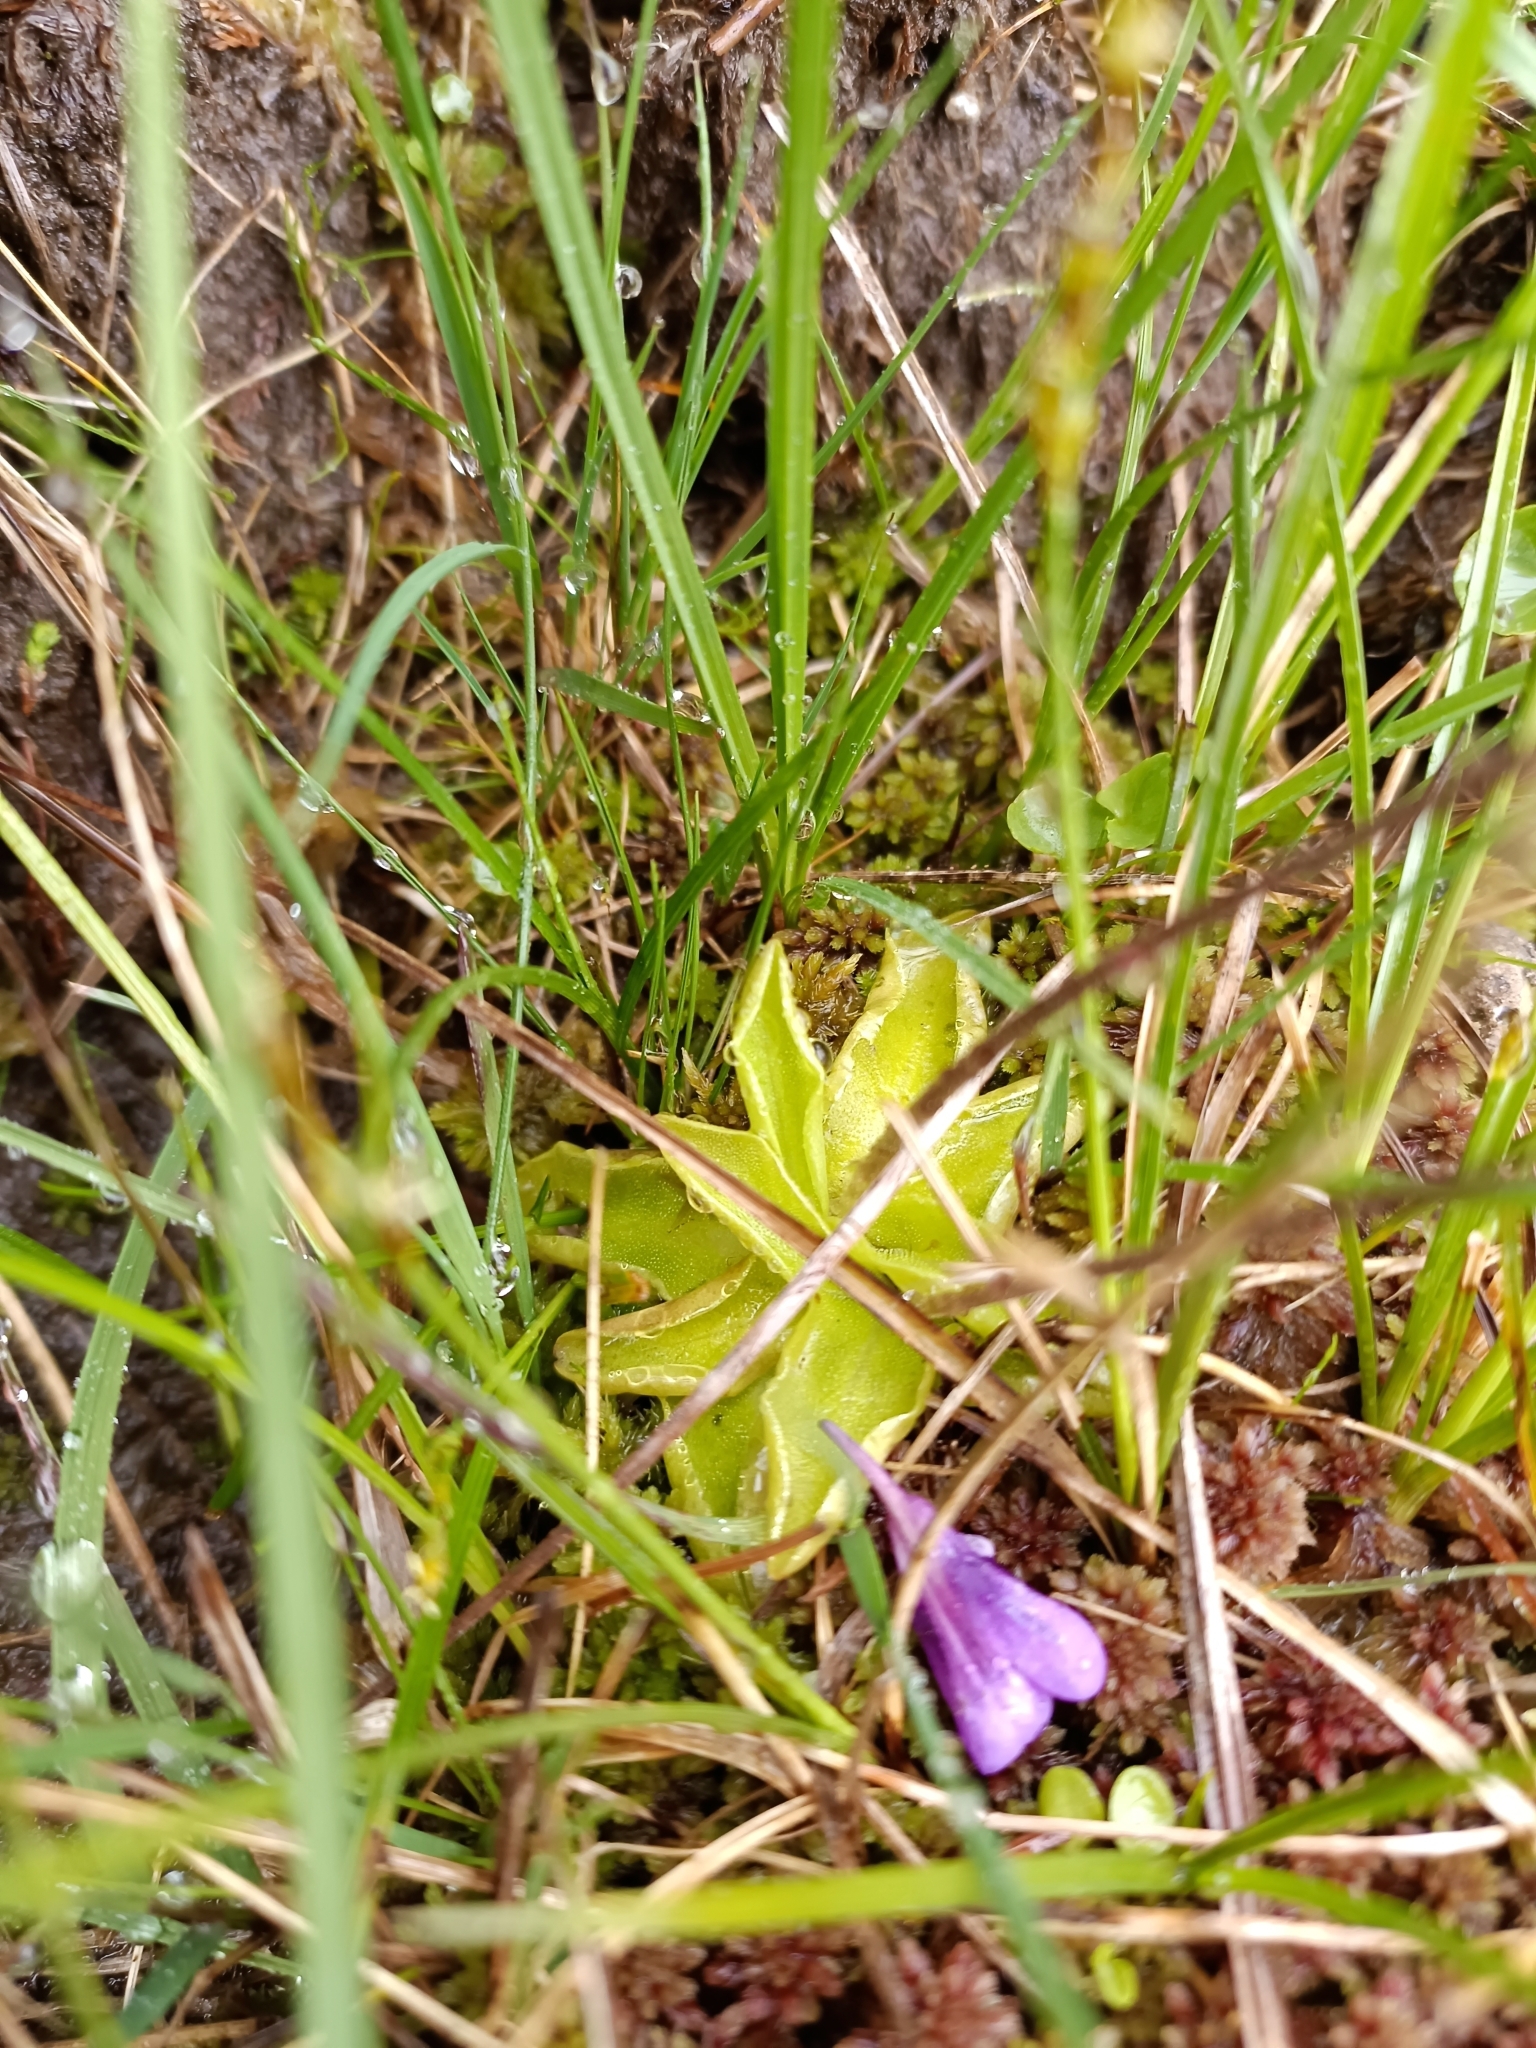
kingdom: Plantae
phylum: Tracheophyta
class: Magnoliopsida
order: Lamiales
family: Lentibulariaceae
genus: Pinguicula
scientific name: Pinguicula vulgaris
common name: Common butterwort
